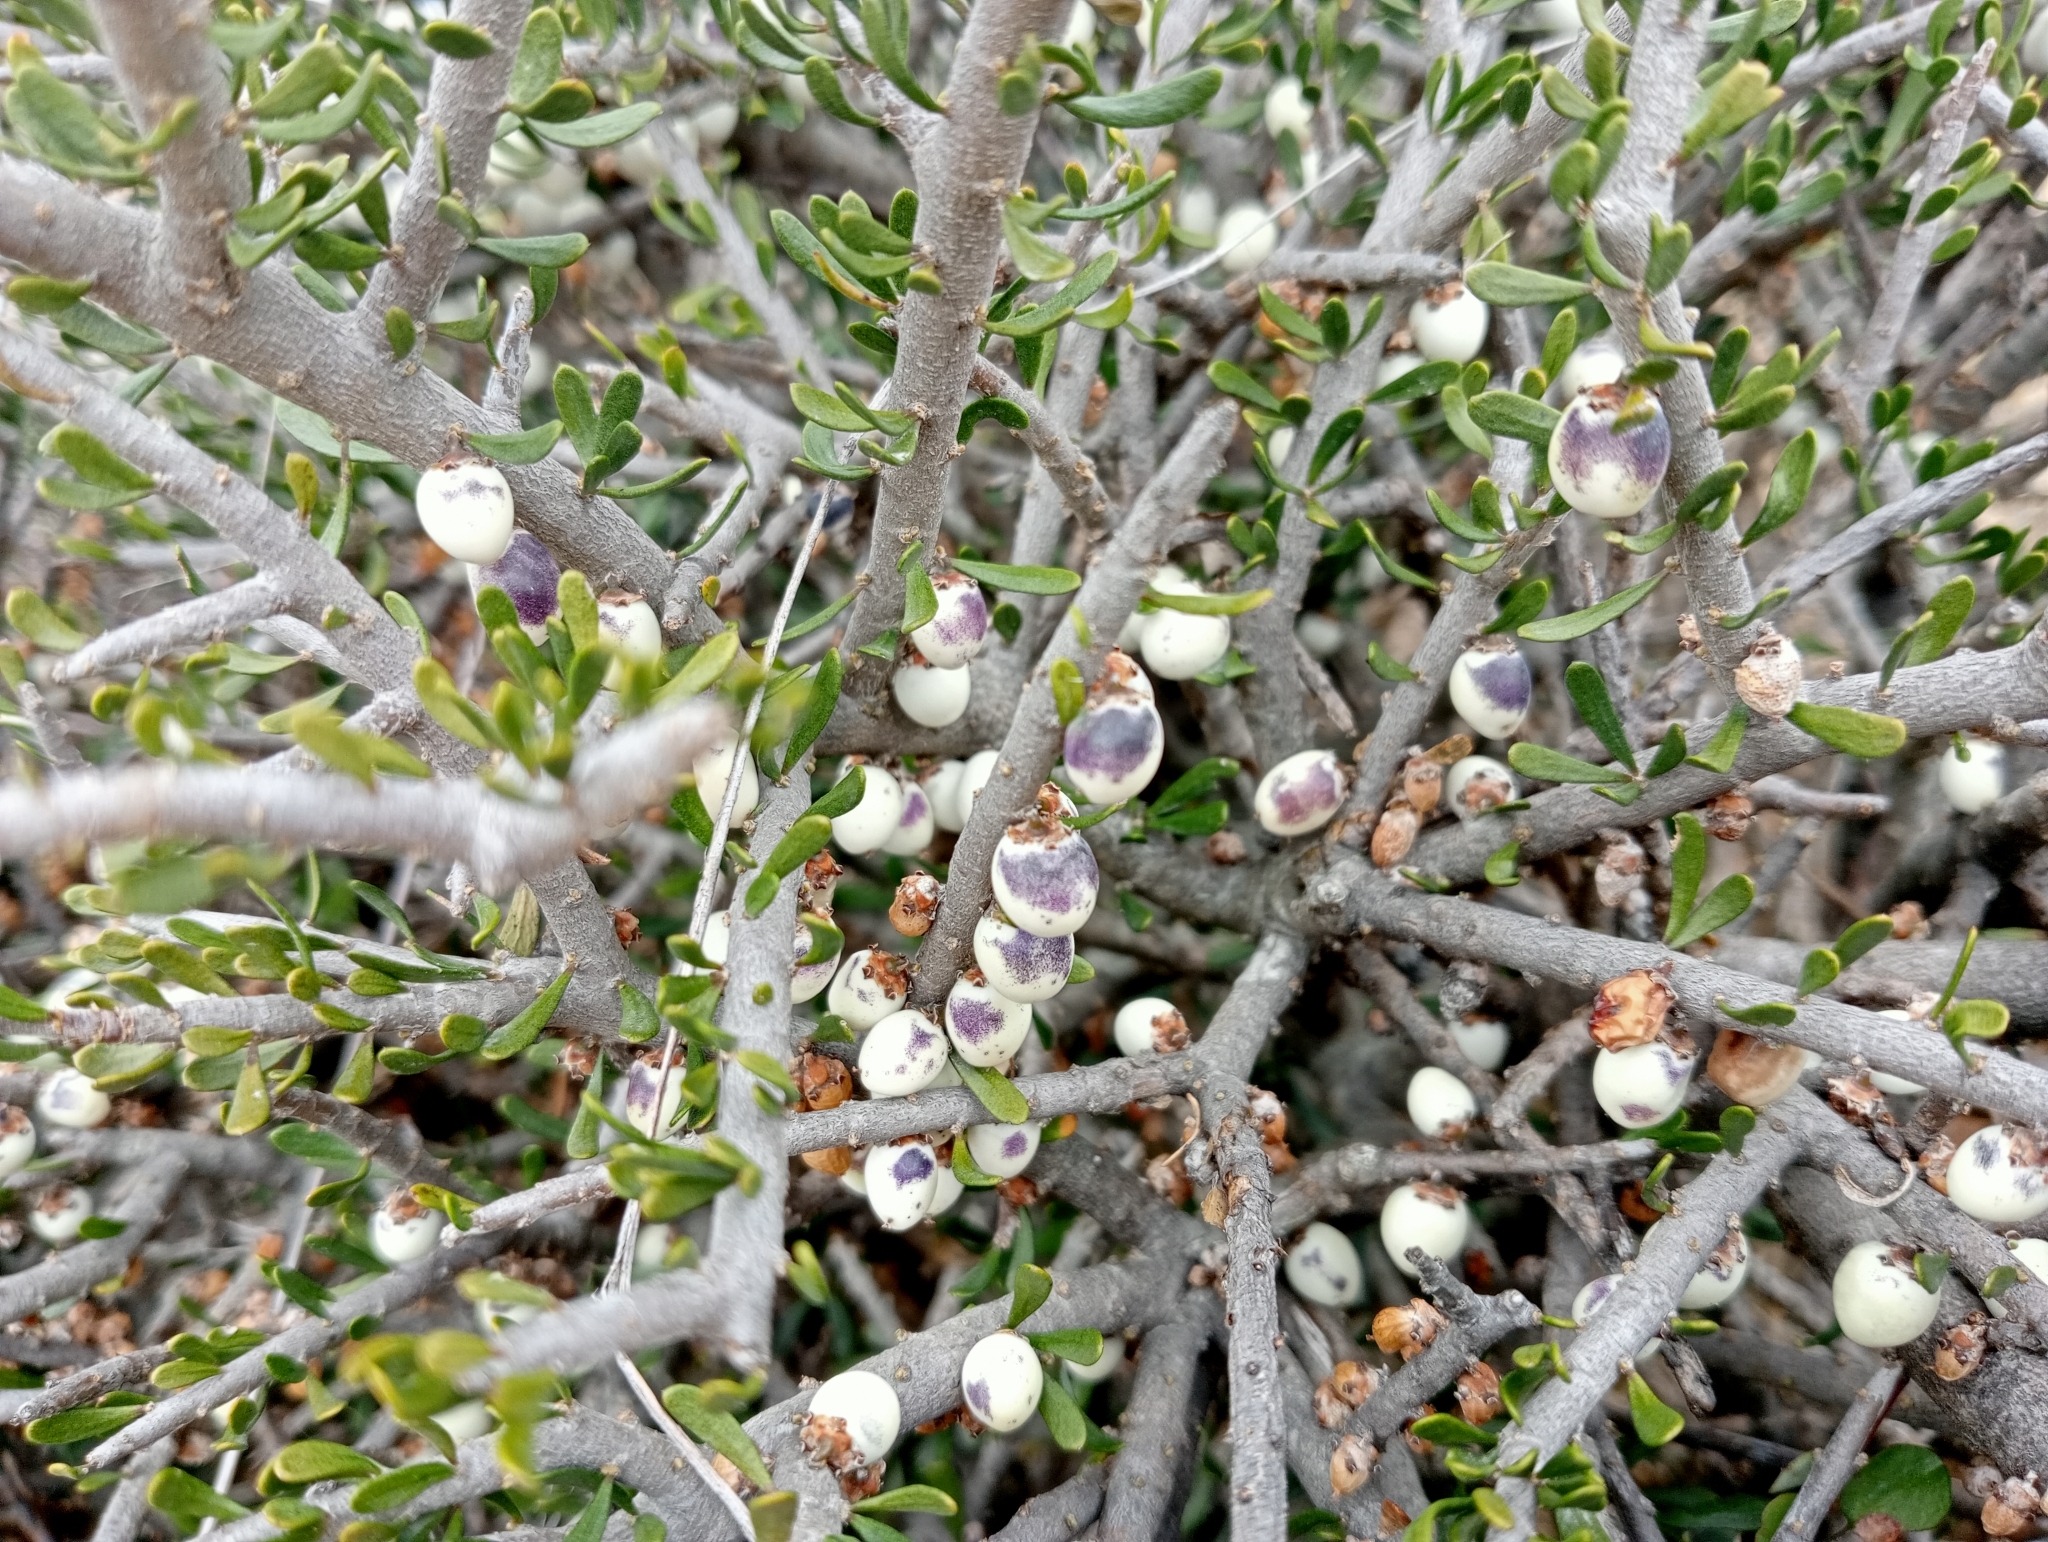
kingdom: Plantae
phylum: Tracheophyta
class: Magnoliopsida
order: Malpighiales
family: Violaceae
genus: Melicytus
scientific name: Melicytus alpinus
